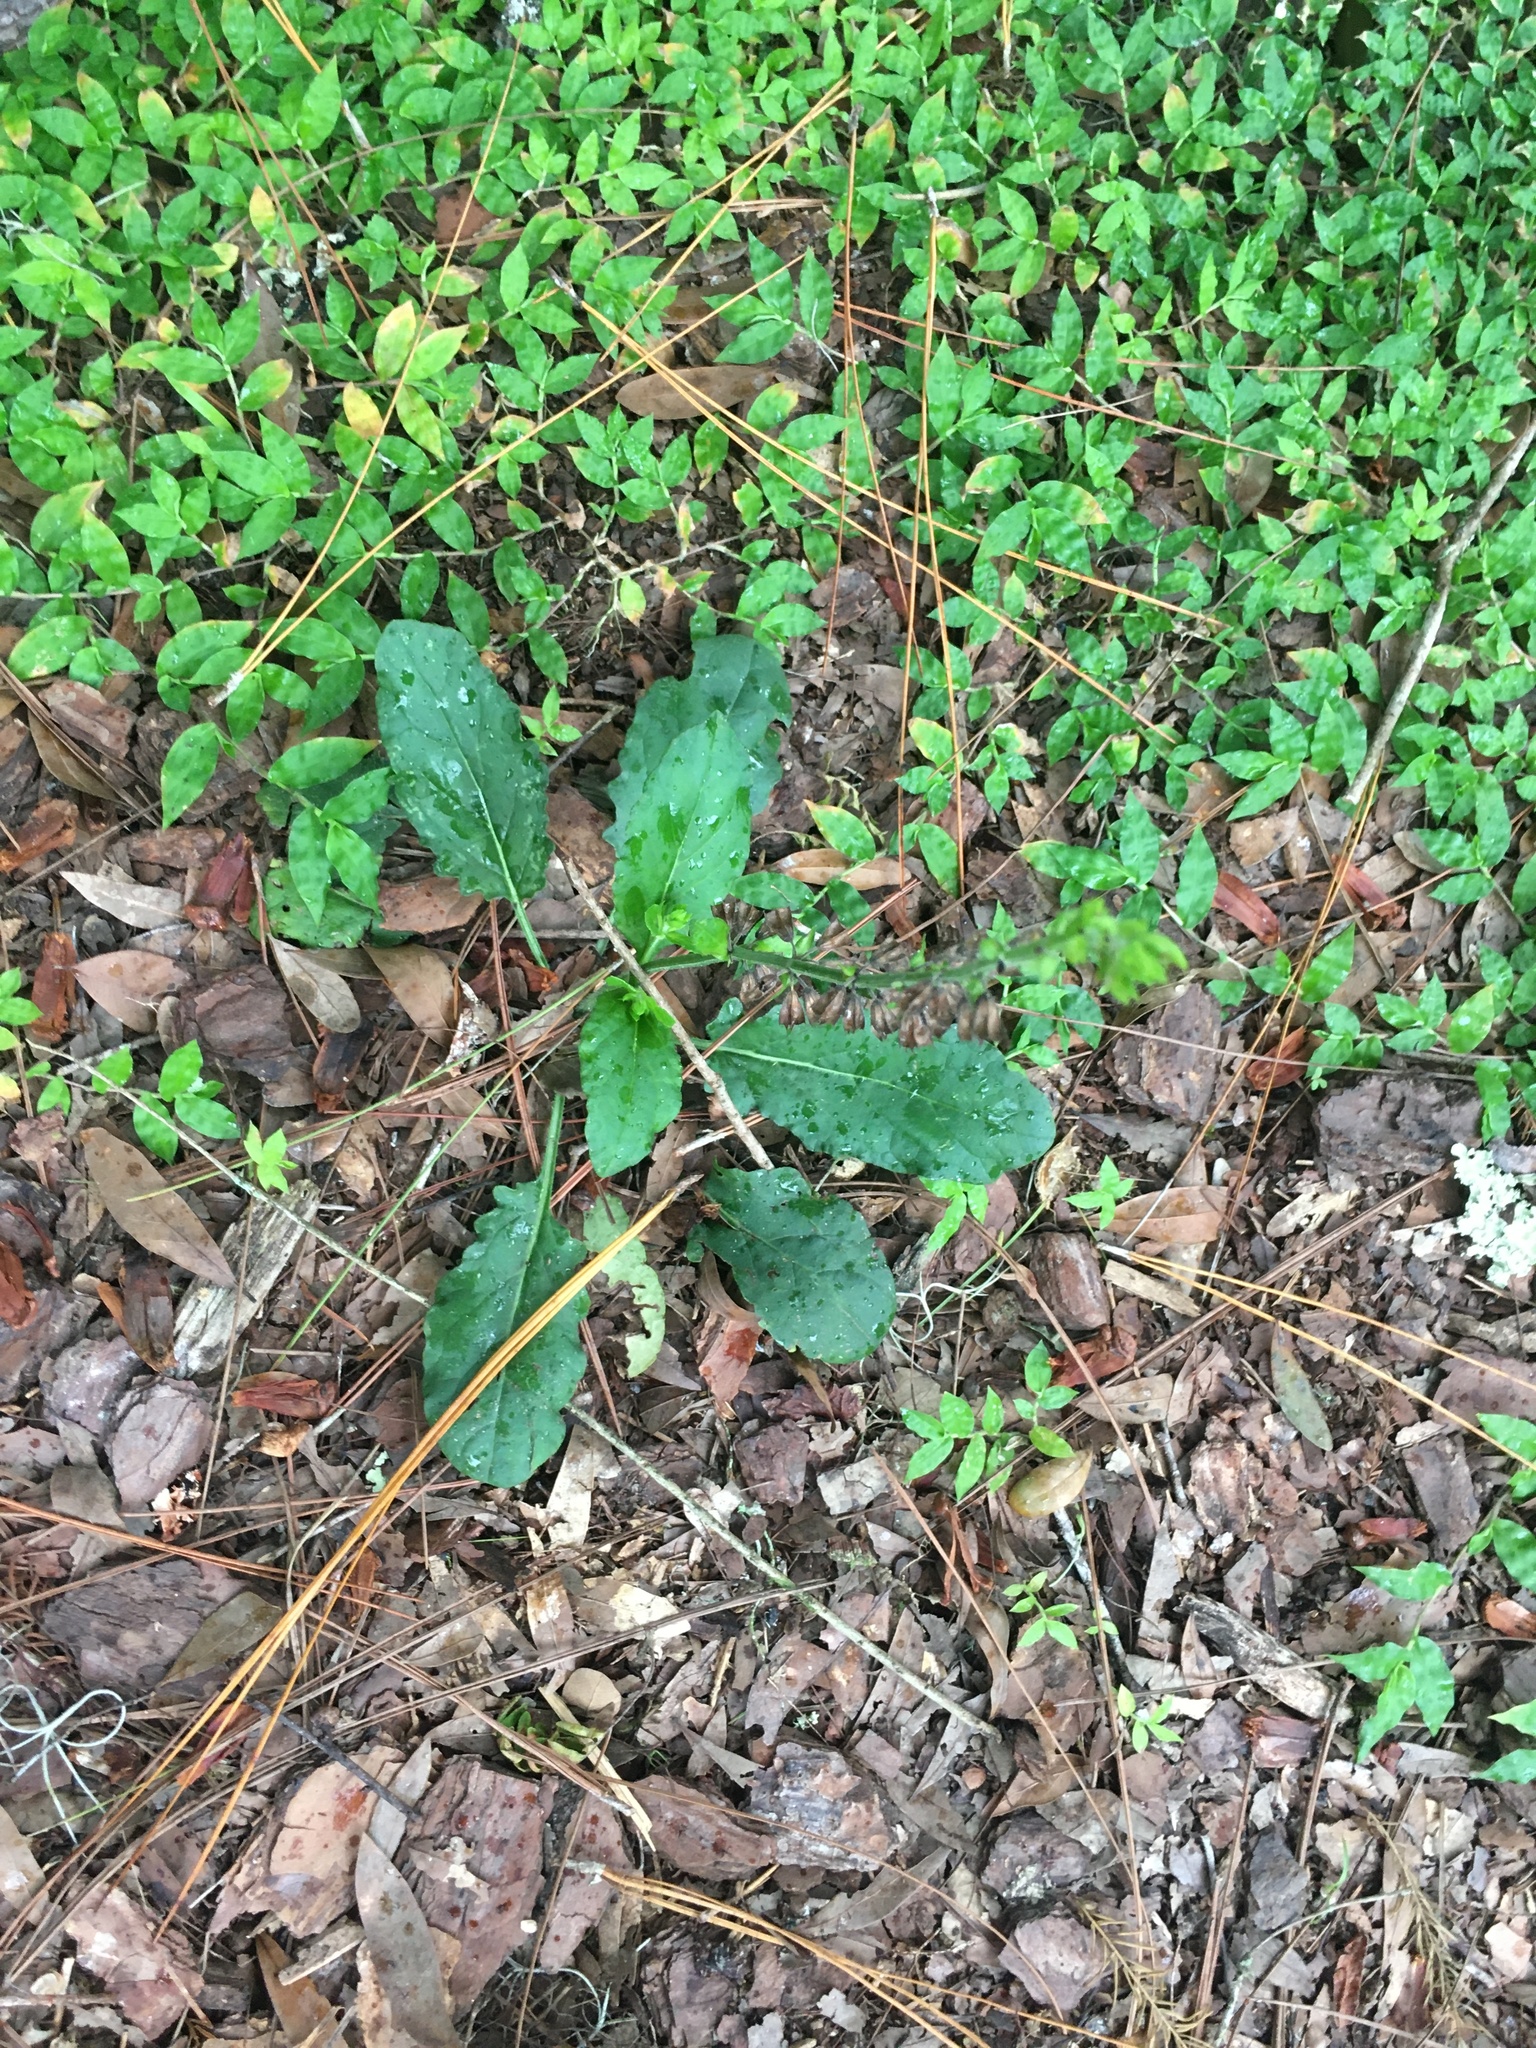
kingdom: Plantae
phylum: Tracheophyta
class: Magnoliopsida
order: Lamiales
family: Lamiaceae
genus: Salvia
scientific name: Salvia lyrata
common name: Cancerweed
